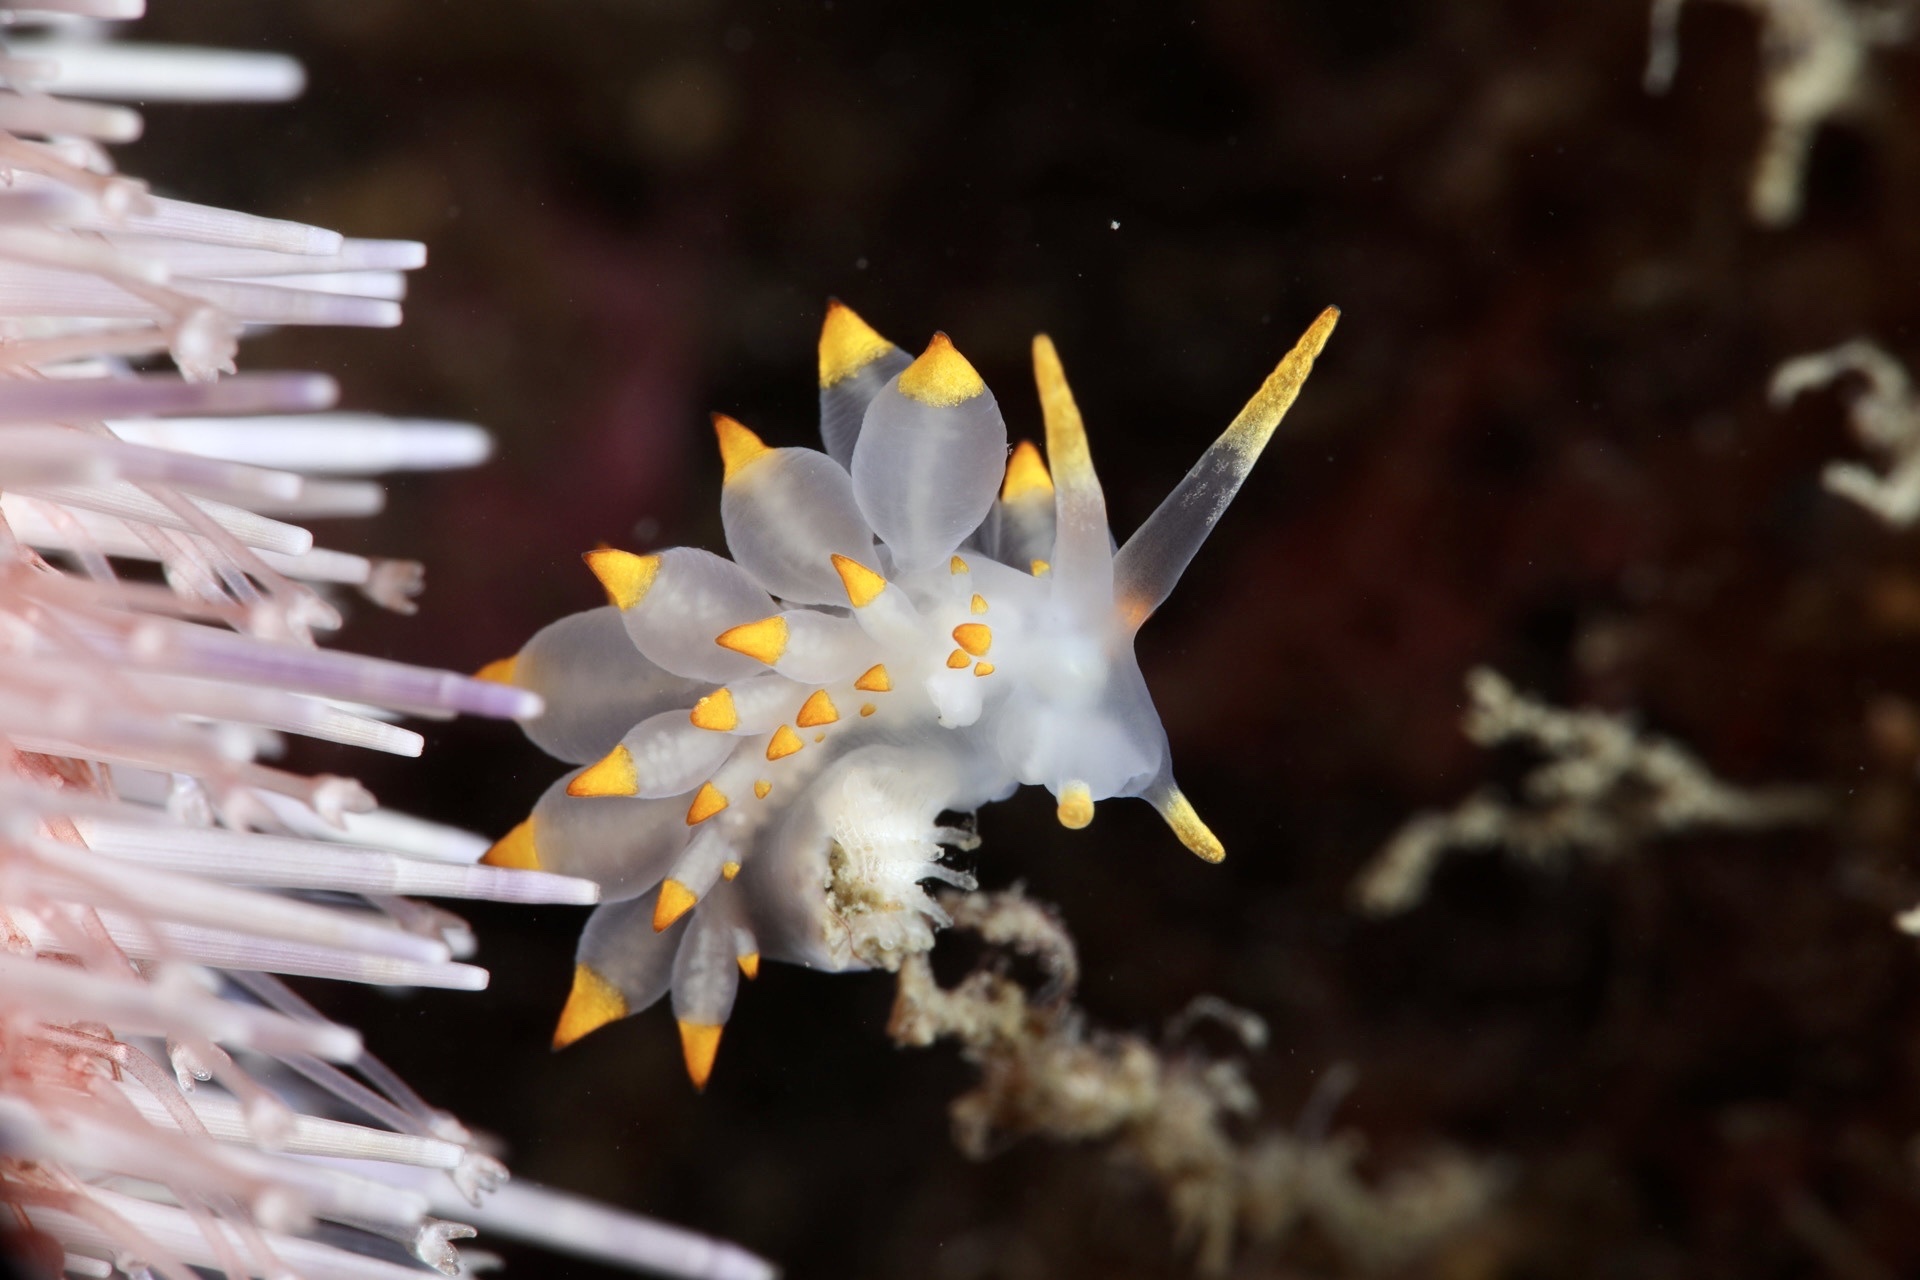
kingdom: Animalia
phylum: Mollusca
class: Gastropoda
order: Nudibranchia
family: Eubranchidae
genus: Amphorina
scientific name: Amphorina farrani
